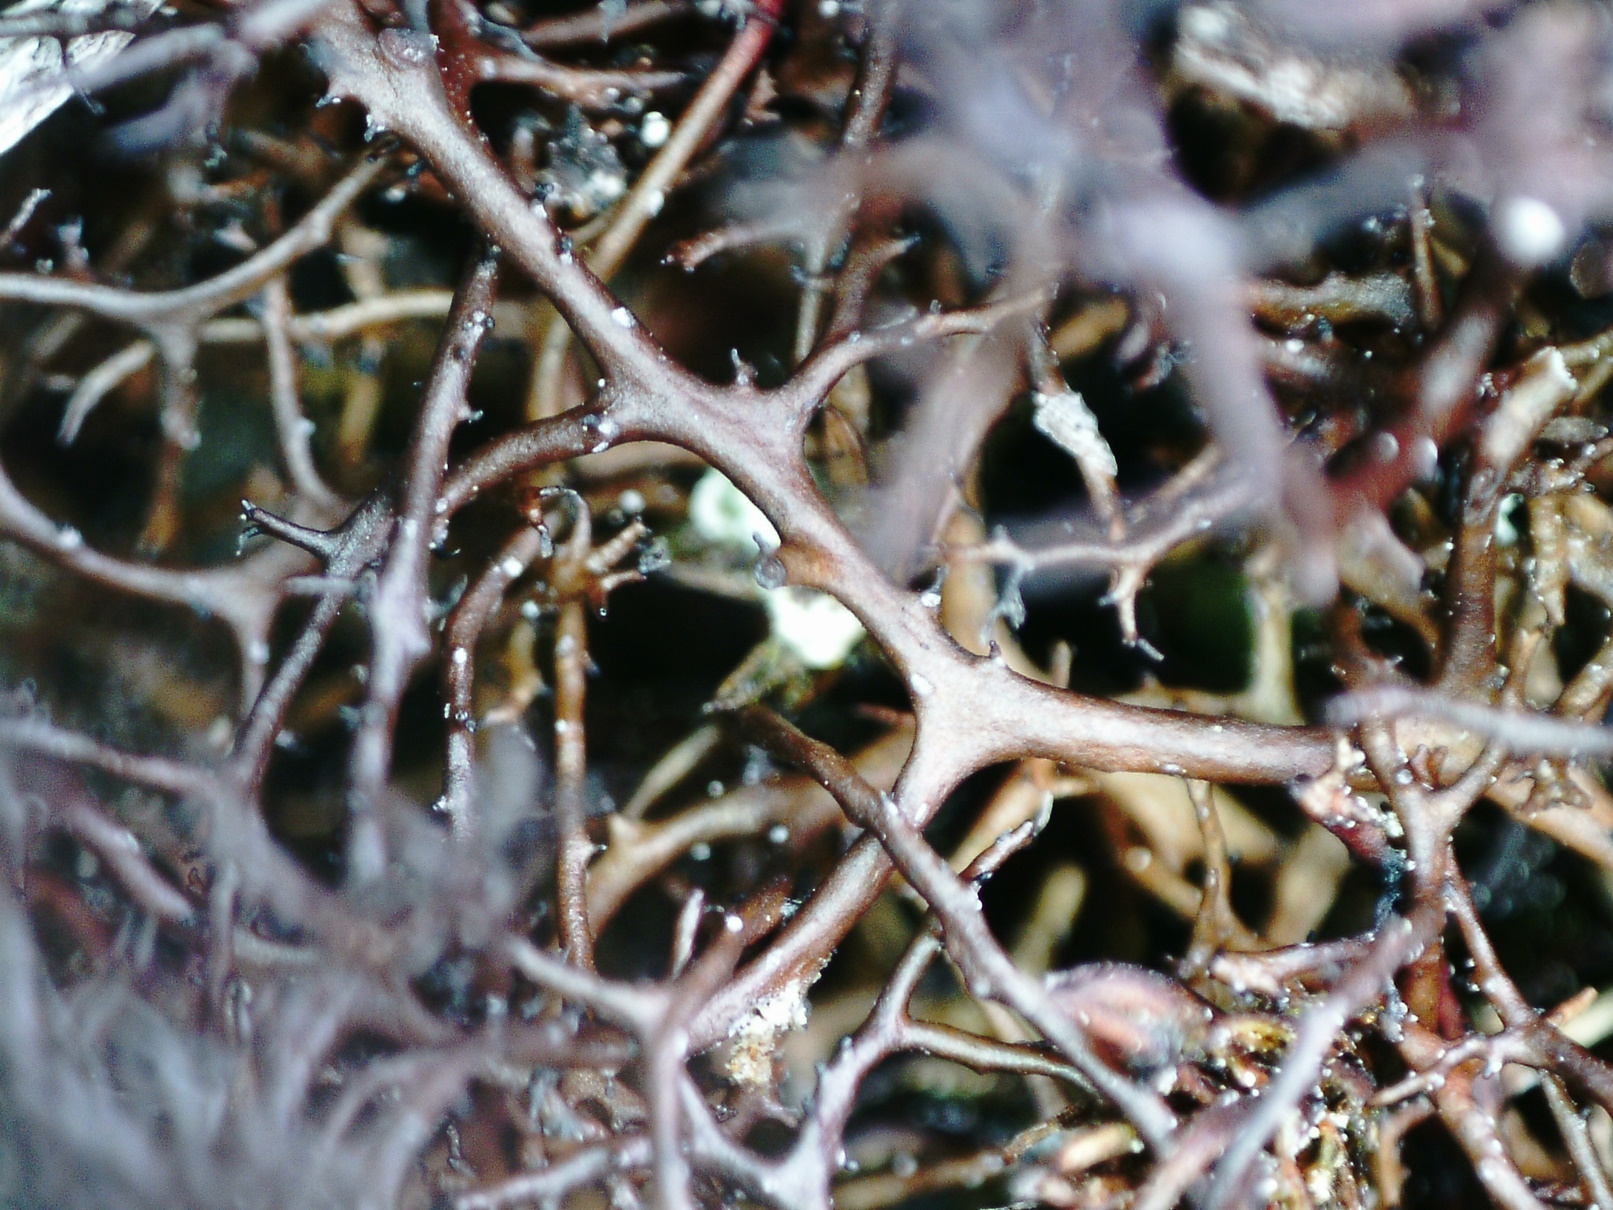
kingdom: Fungi
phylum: Ascomycota
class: Lecanoromycetes
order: Lecanorales
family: Parmeliaceae
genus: Cetraria
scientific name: Cetraria muricata
